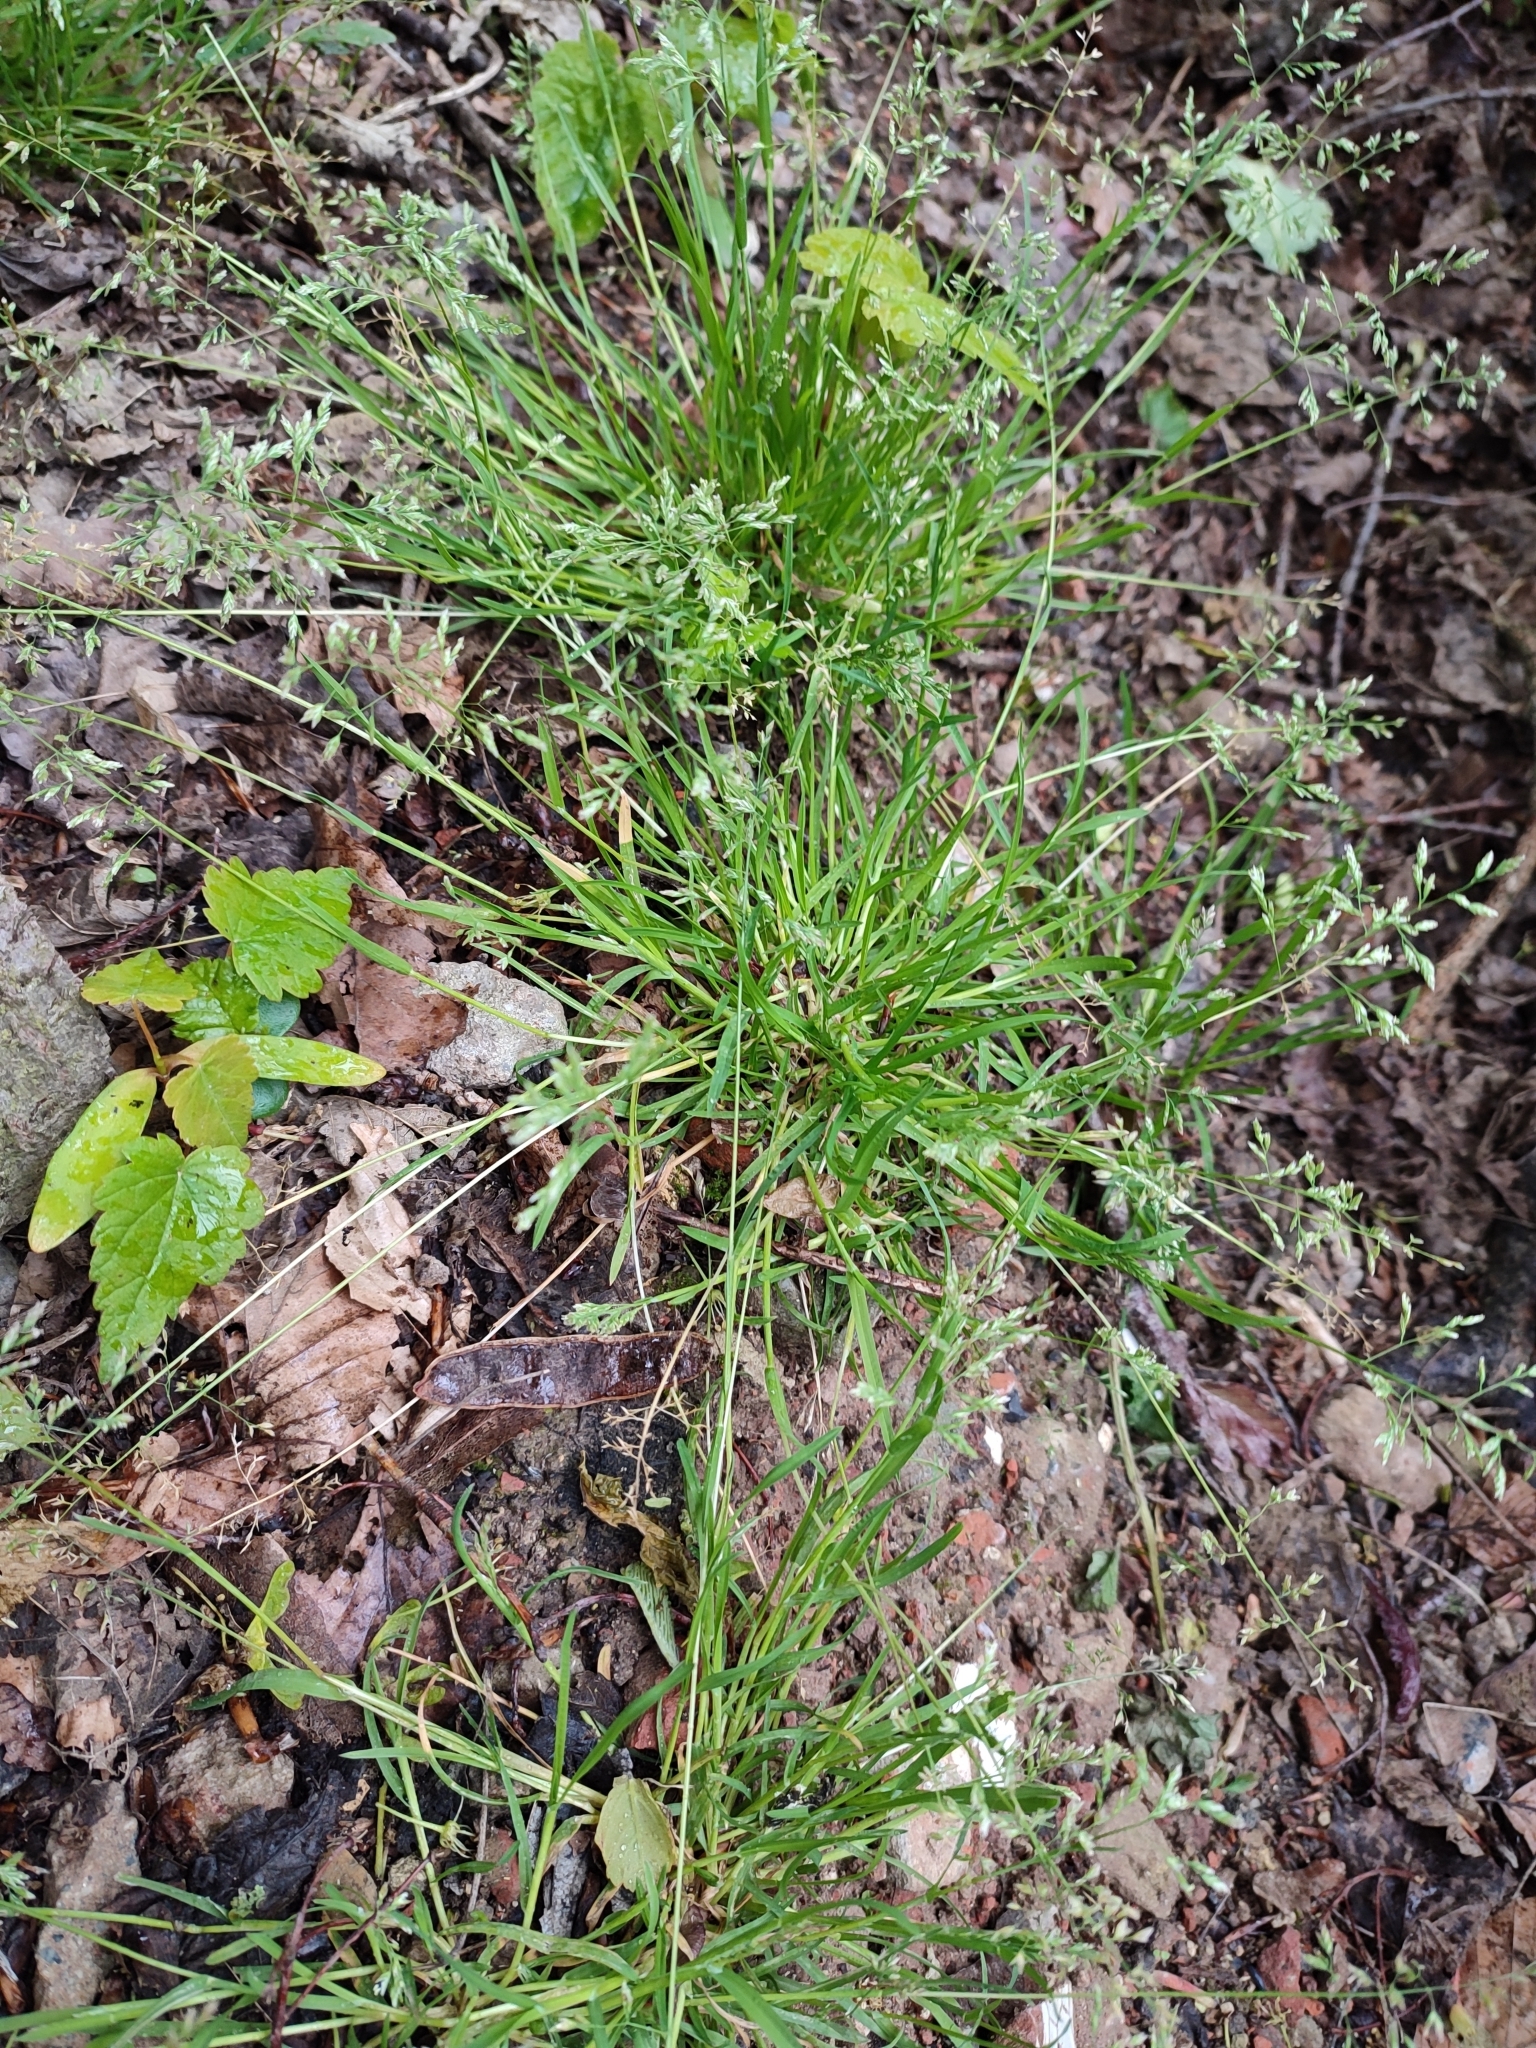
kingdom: Plantae
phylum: Tracheophyta
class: Liliopsida
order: Poales
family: Poaceae
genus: Poa
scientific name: Poa annua
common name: Annual bluegrass
